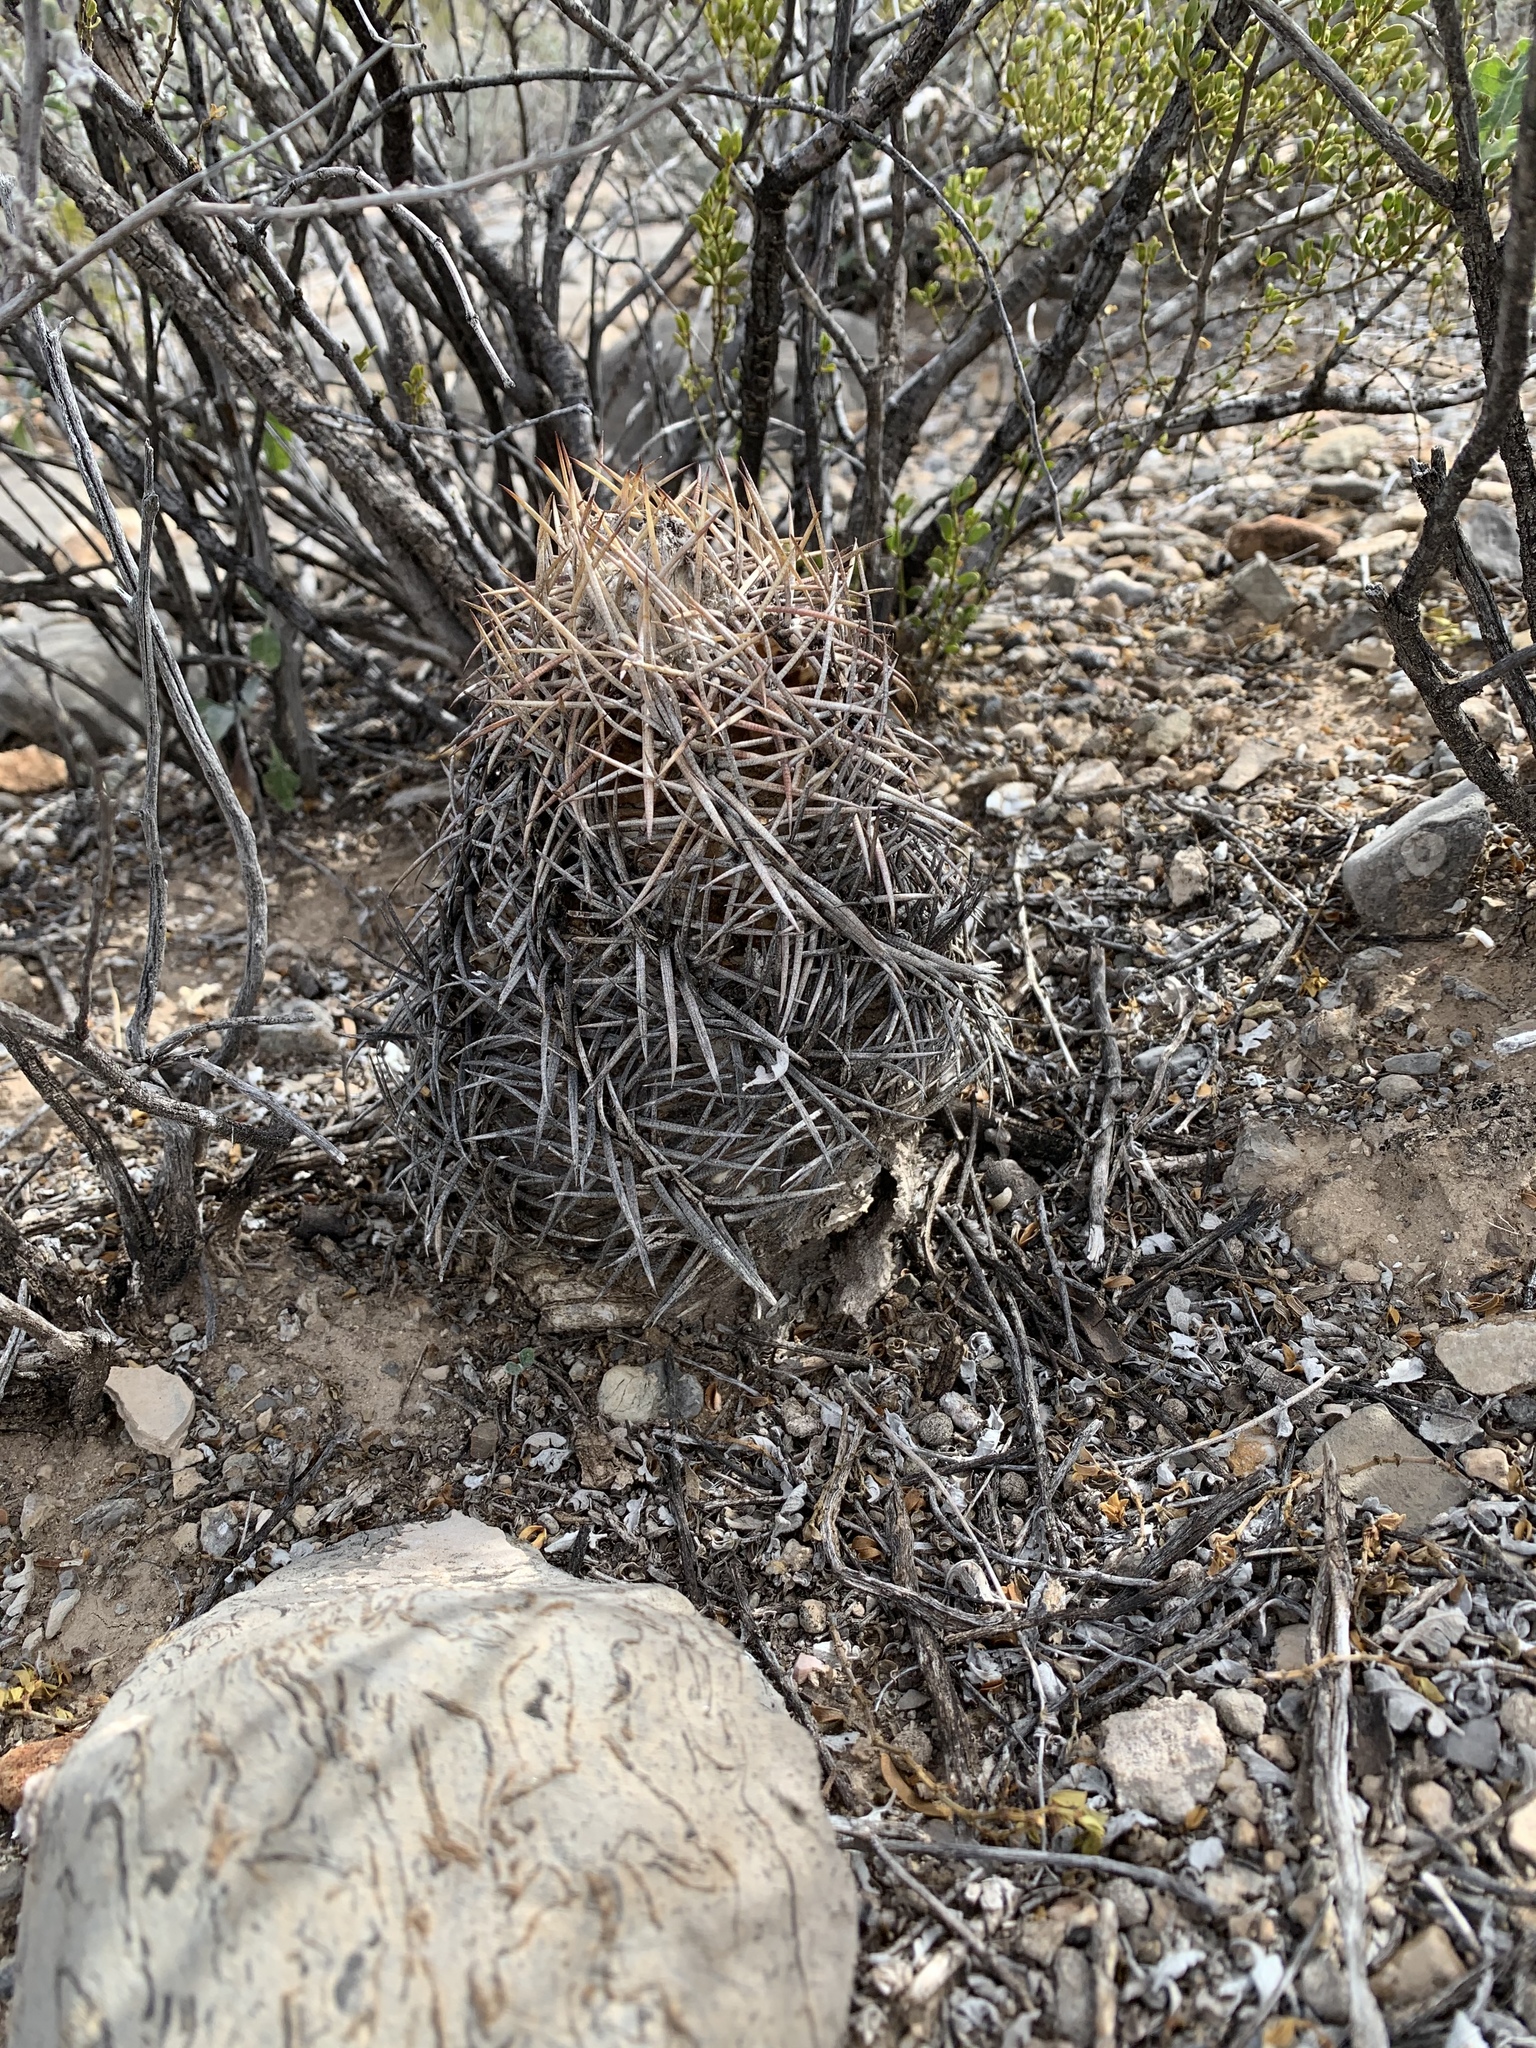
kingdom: Plantae
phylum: Tracheophyta
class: Magnoliopsida
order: Caryophyllales
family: Cactaceae
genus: Echinocactus
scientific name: Echinocactus horizonthalonius
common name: Devilshead
